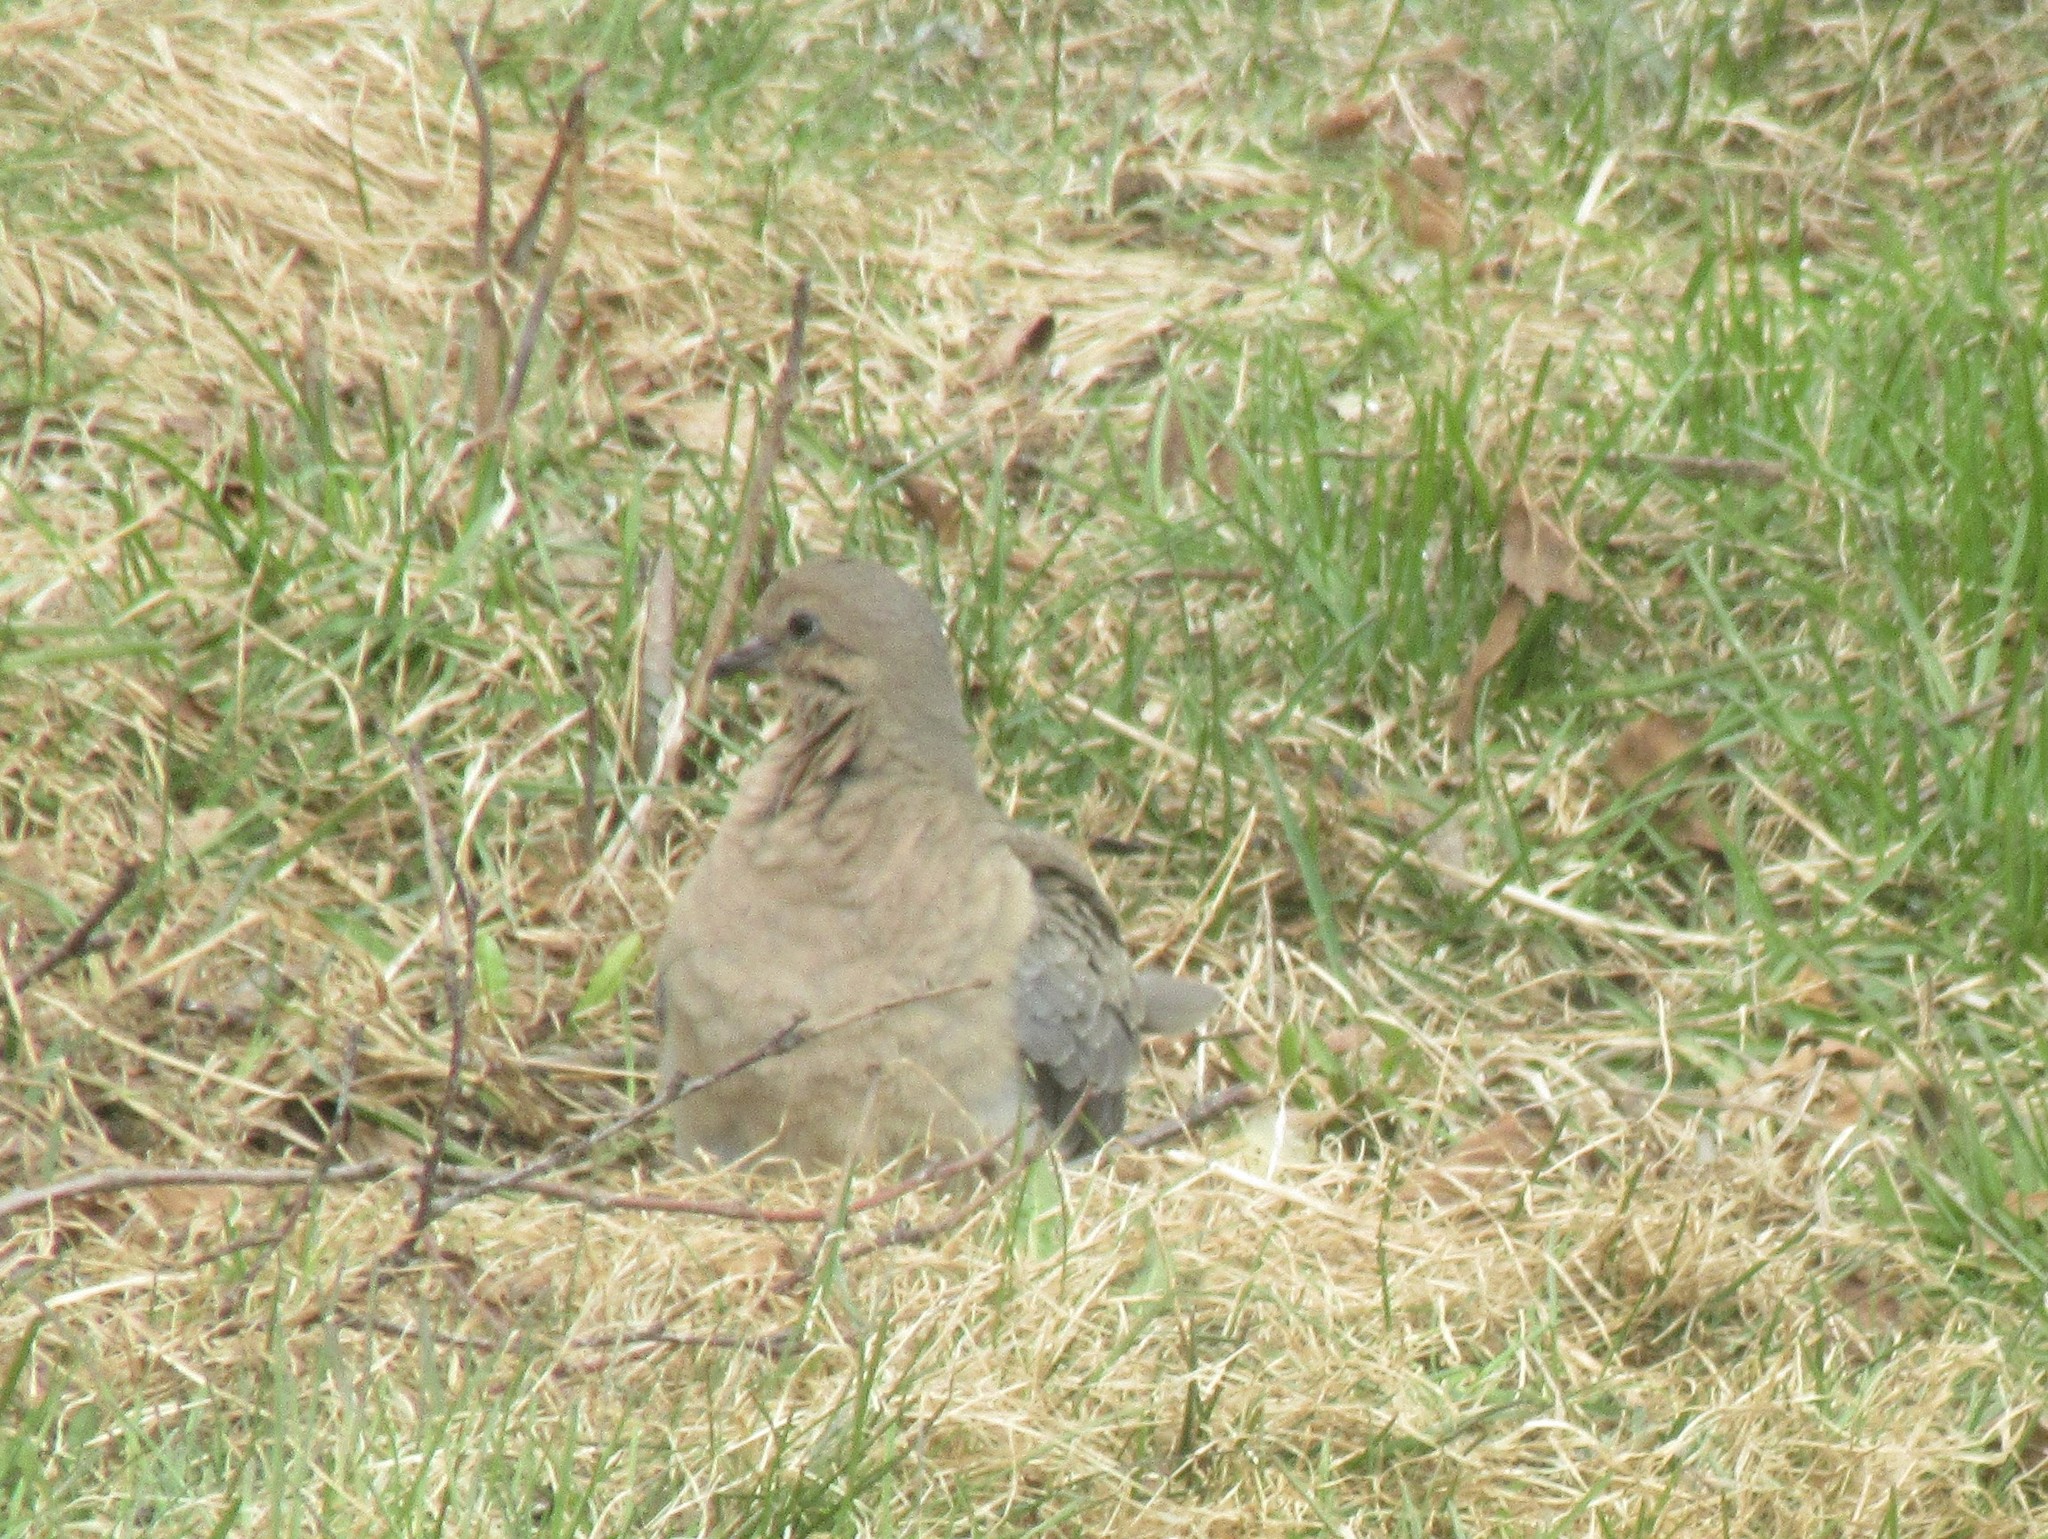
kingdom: Animalia
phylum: Chordata
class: Aves
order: Columbiformes
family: Columbidae
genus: Zenaida
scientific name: Zenaida macroura
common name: Mourning dove
